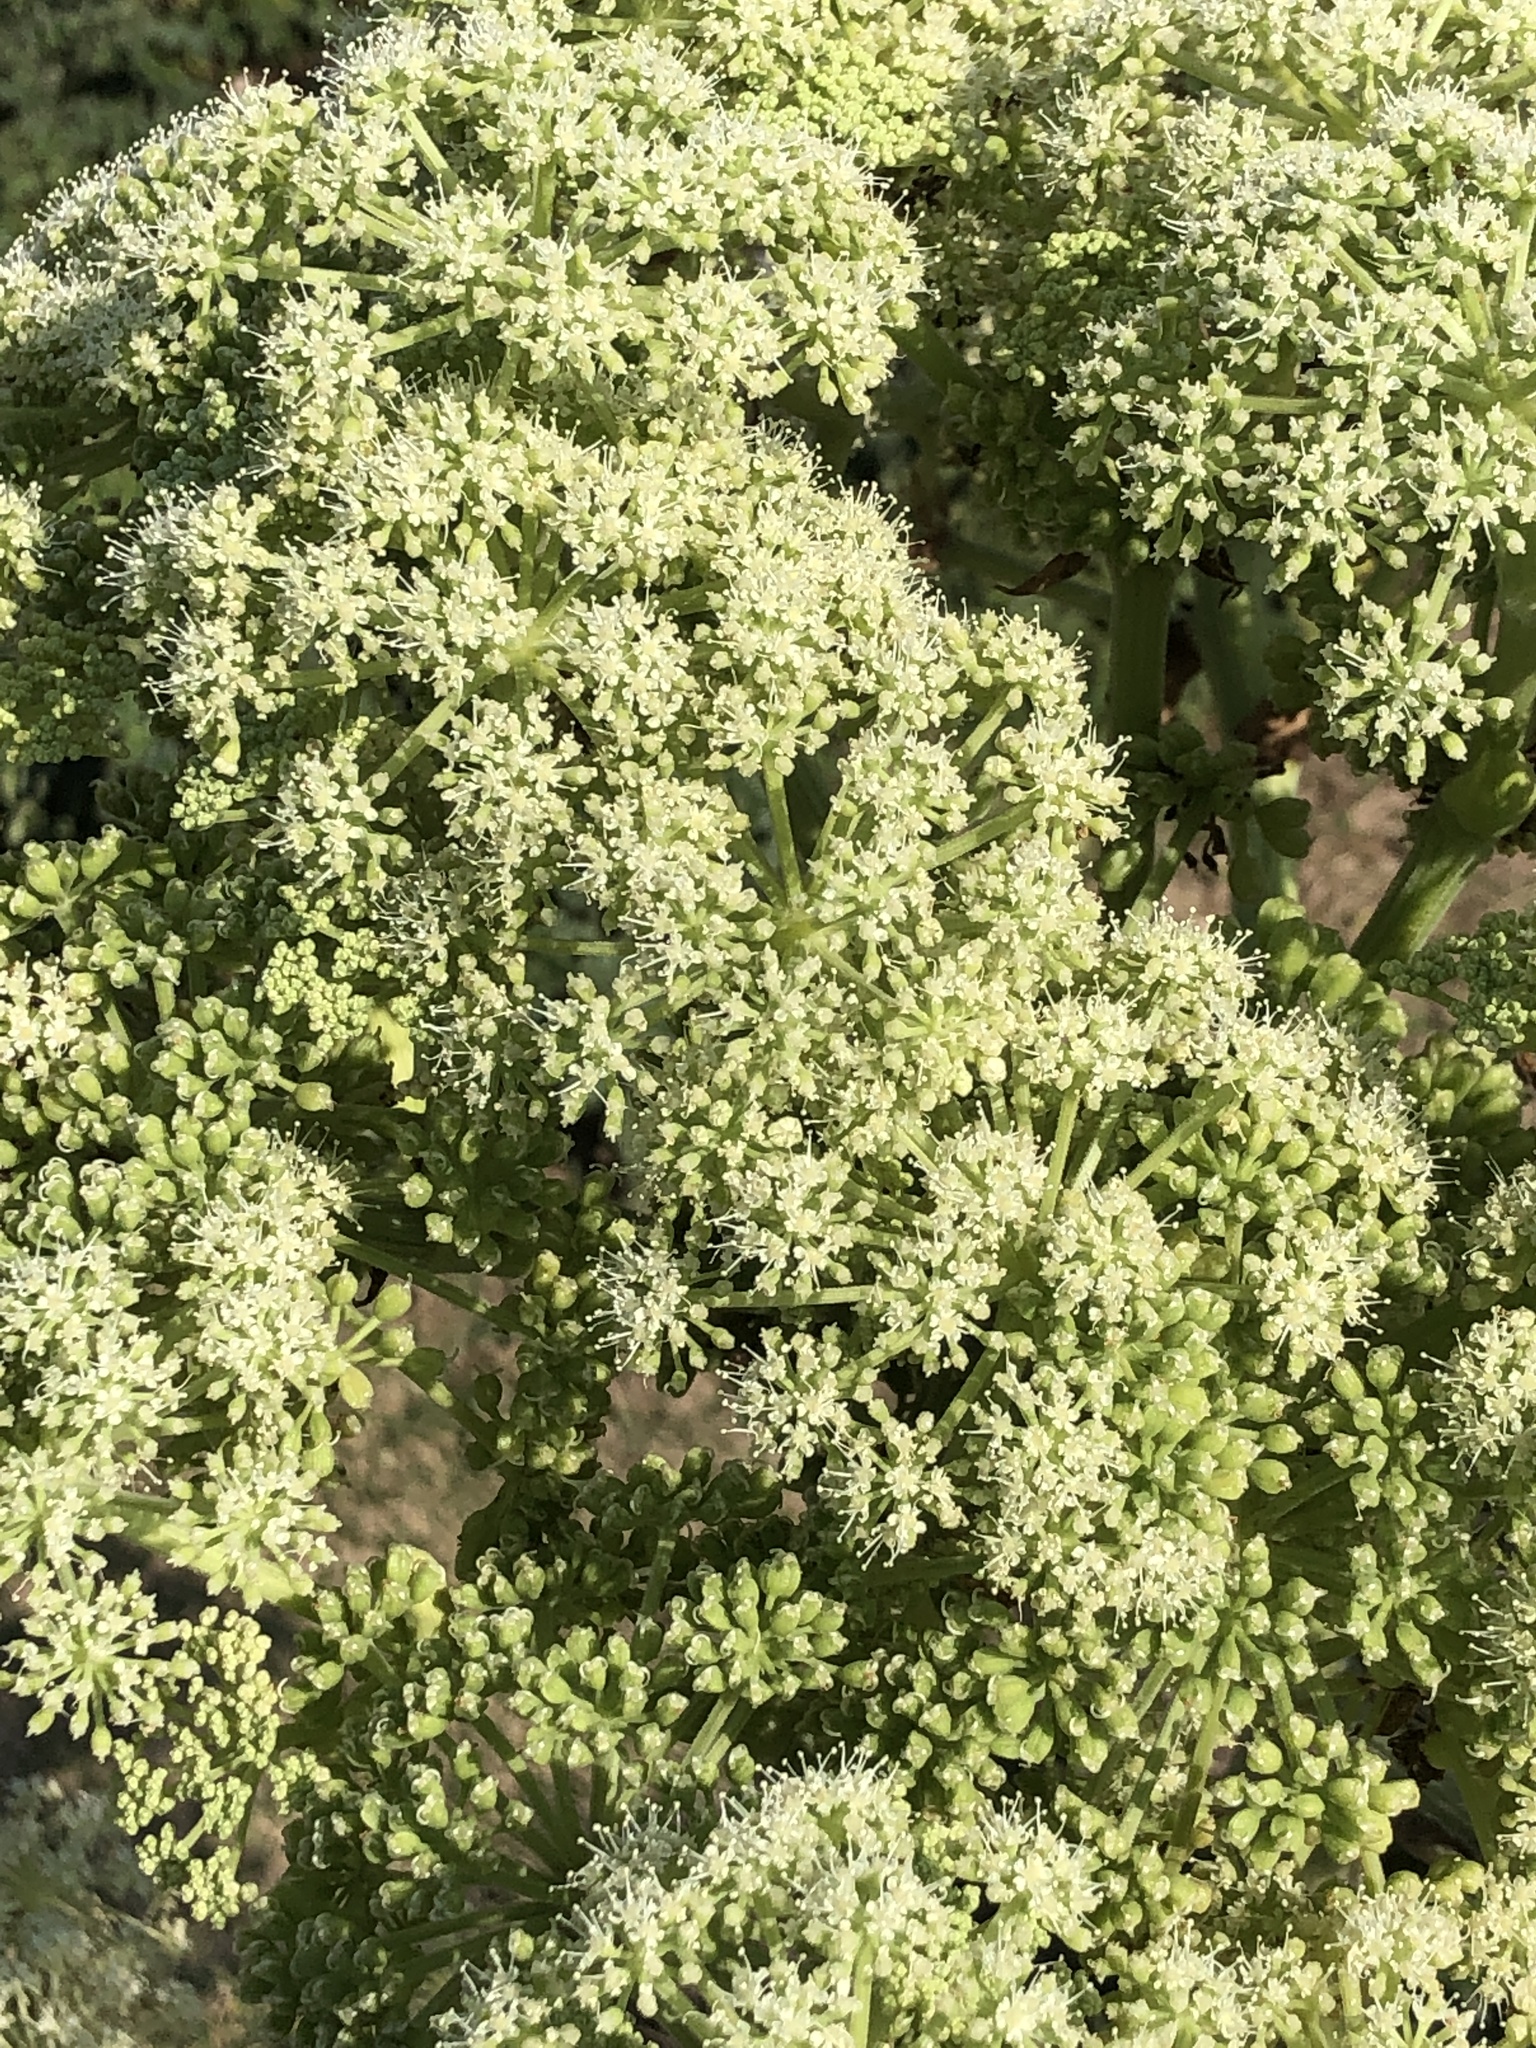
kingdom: Plantae
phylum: Tracheophyta
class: Magnoliopsida
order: Apiales
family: Apiaceae
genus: Angelica
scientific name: Angelica japonica
